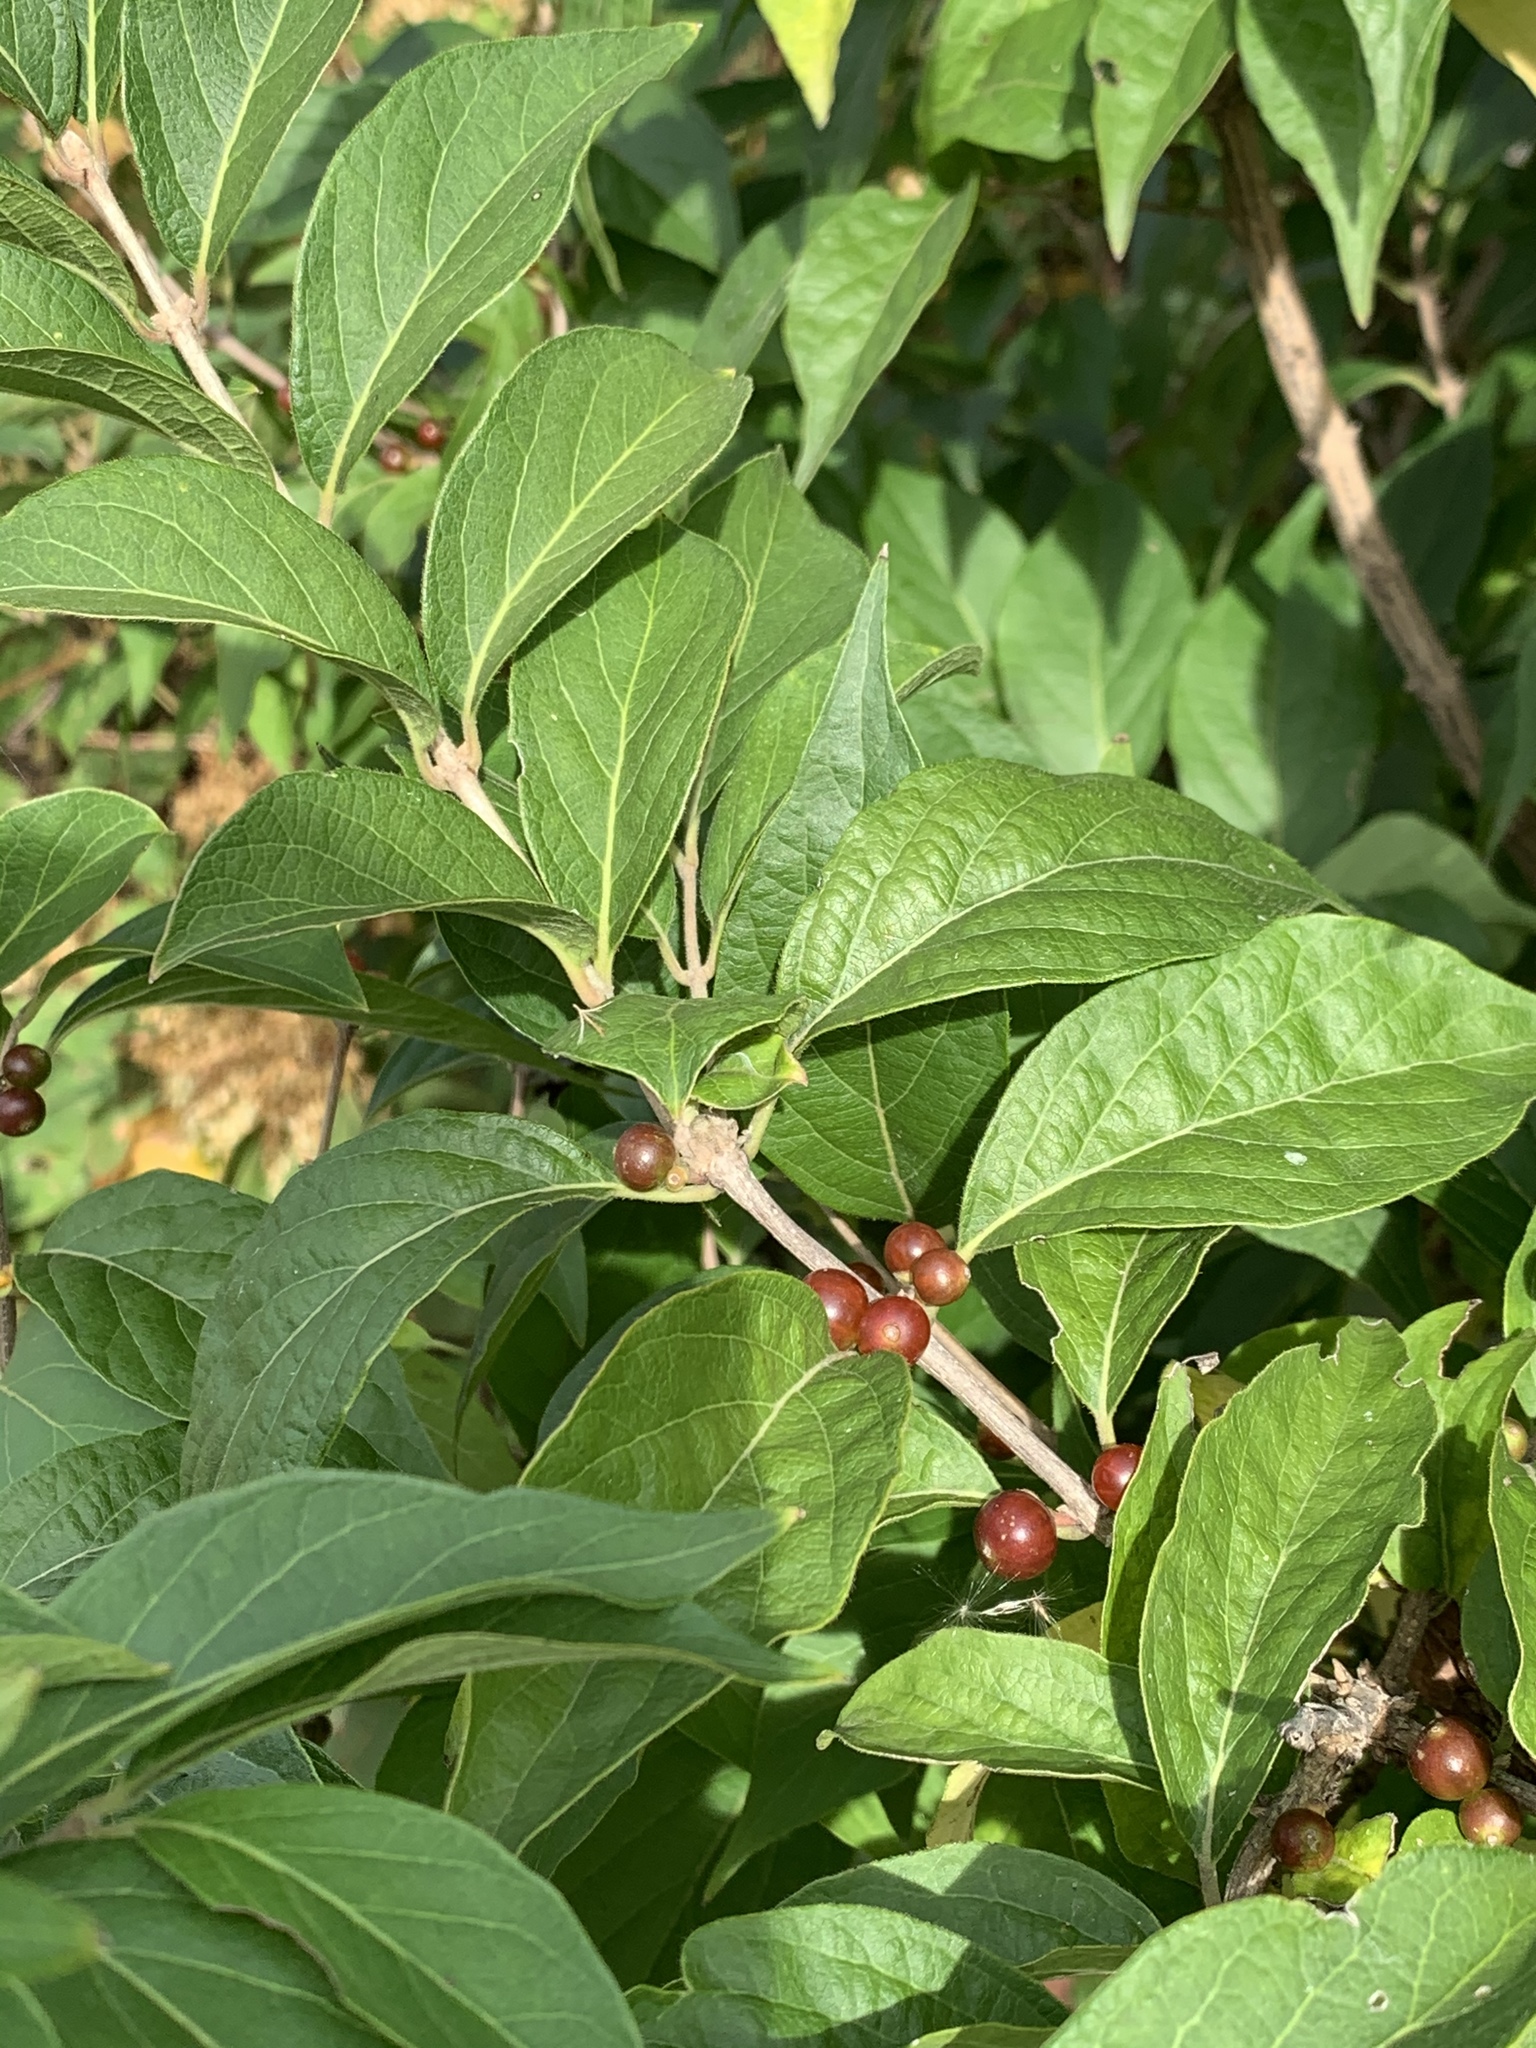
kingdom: Plantae
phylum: Tracheophyta
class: Magnoliopsida
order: Dipsacales
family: Caprifoliaceae
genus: Lonicera
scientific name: Lonicera maackii
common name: Amur honeysuckle
